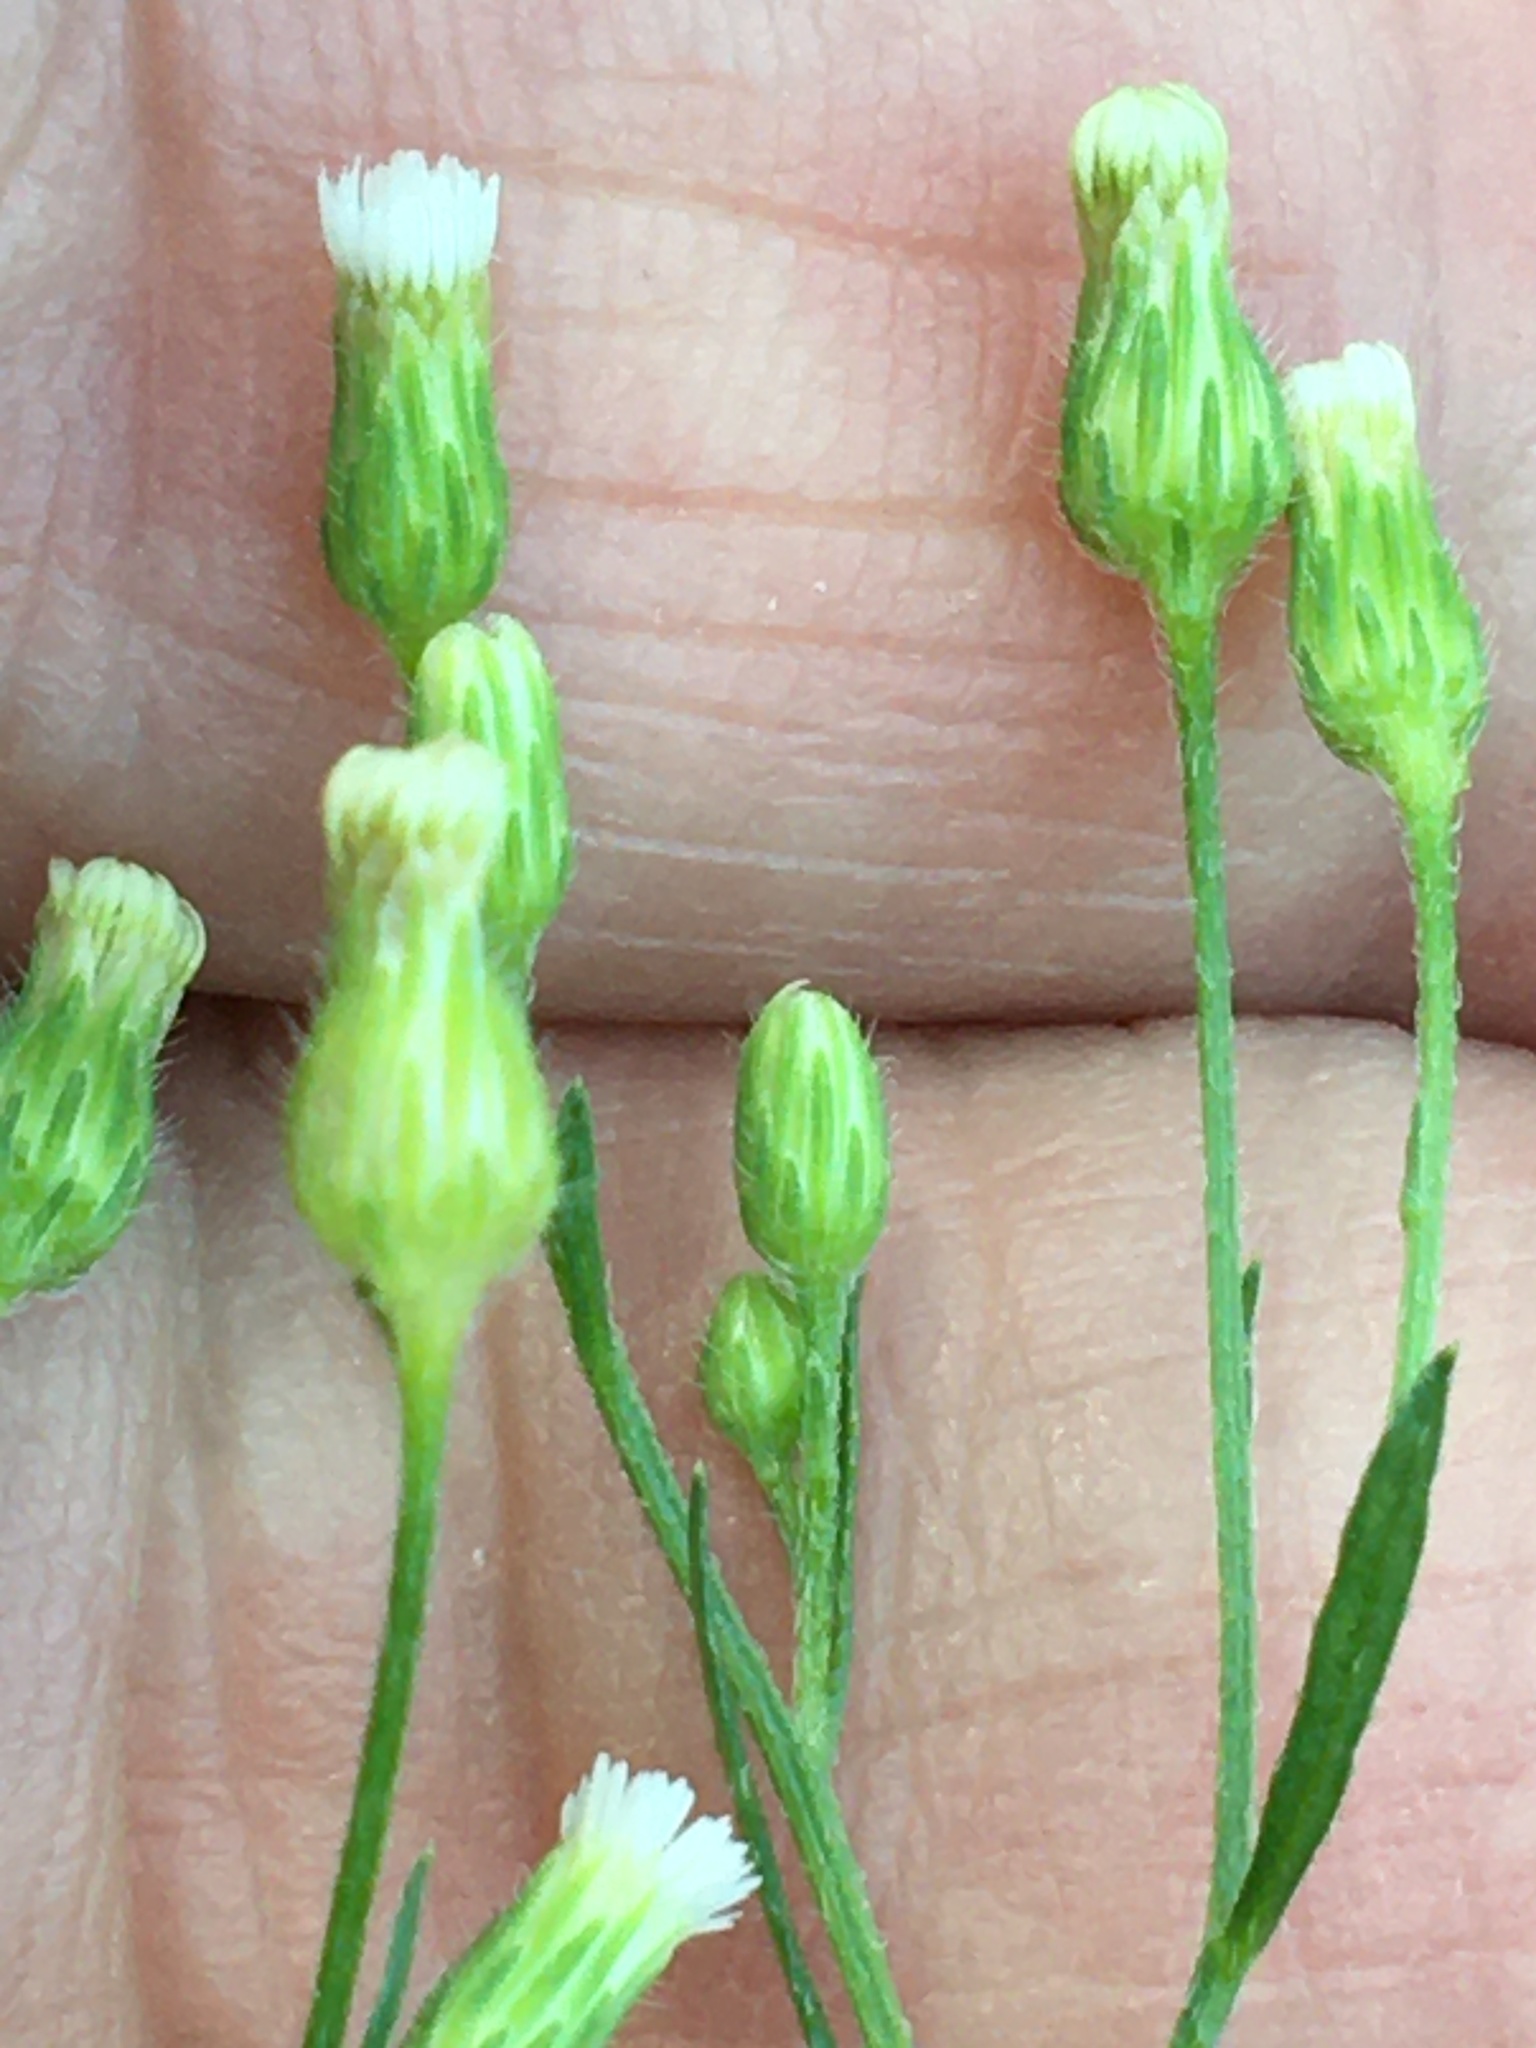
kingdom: Plantae
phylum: Tracheophyta
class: Magnoliopsida
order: Asterales
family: Asteraceae
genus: Erigeron
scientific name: Erigeron canadensis
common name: Canadian fleabane
